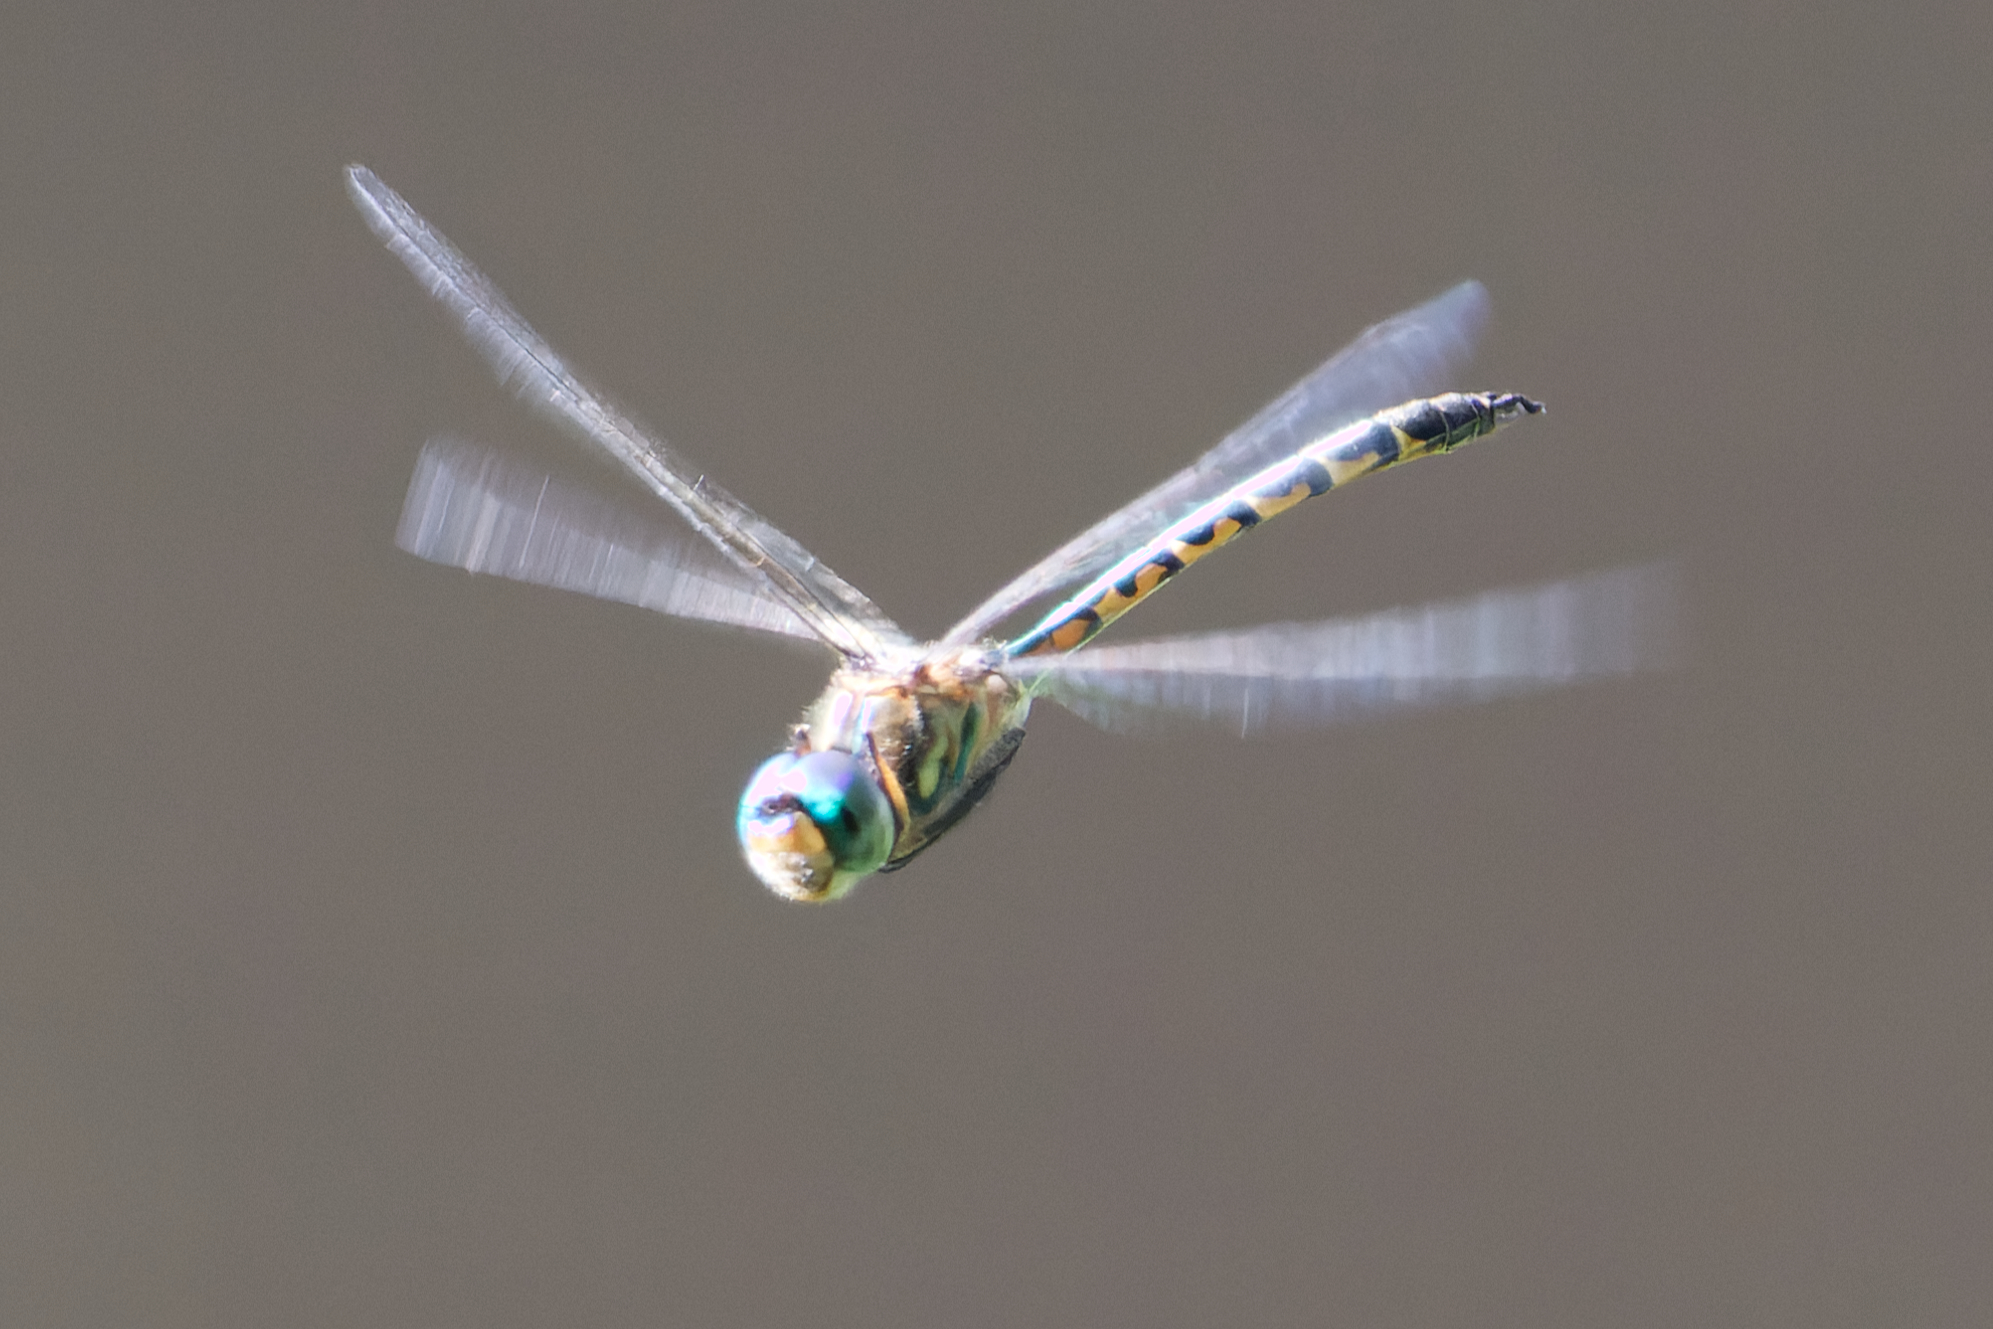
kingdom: Animalia
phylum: Arthropoda
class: Insecta
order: Odonata
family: Corduliidae
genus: Hemicordulia
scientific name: Hemicordulia australiae
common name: Sentry dragonfly
